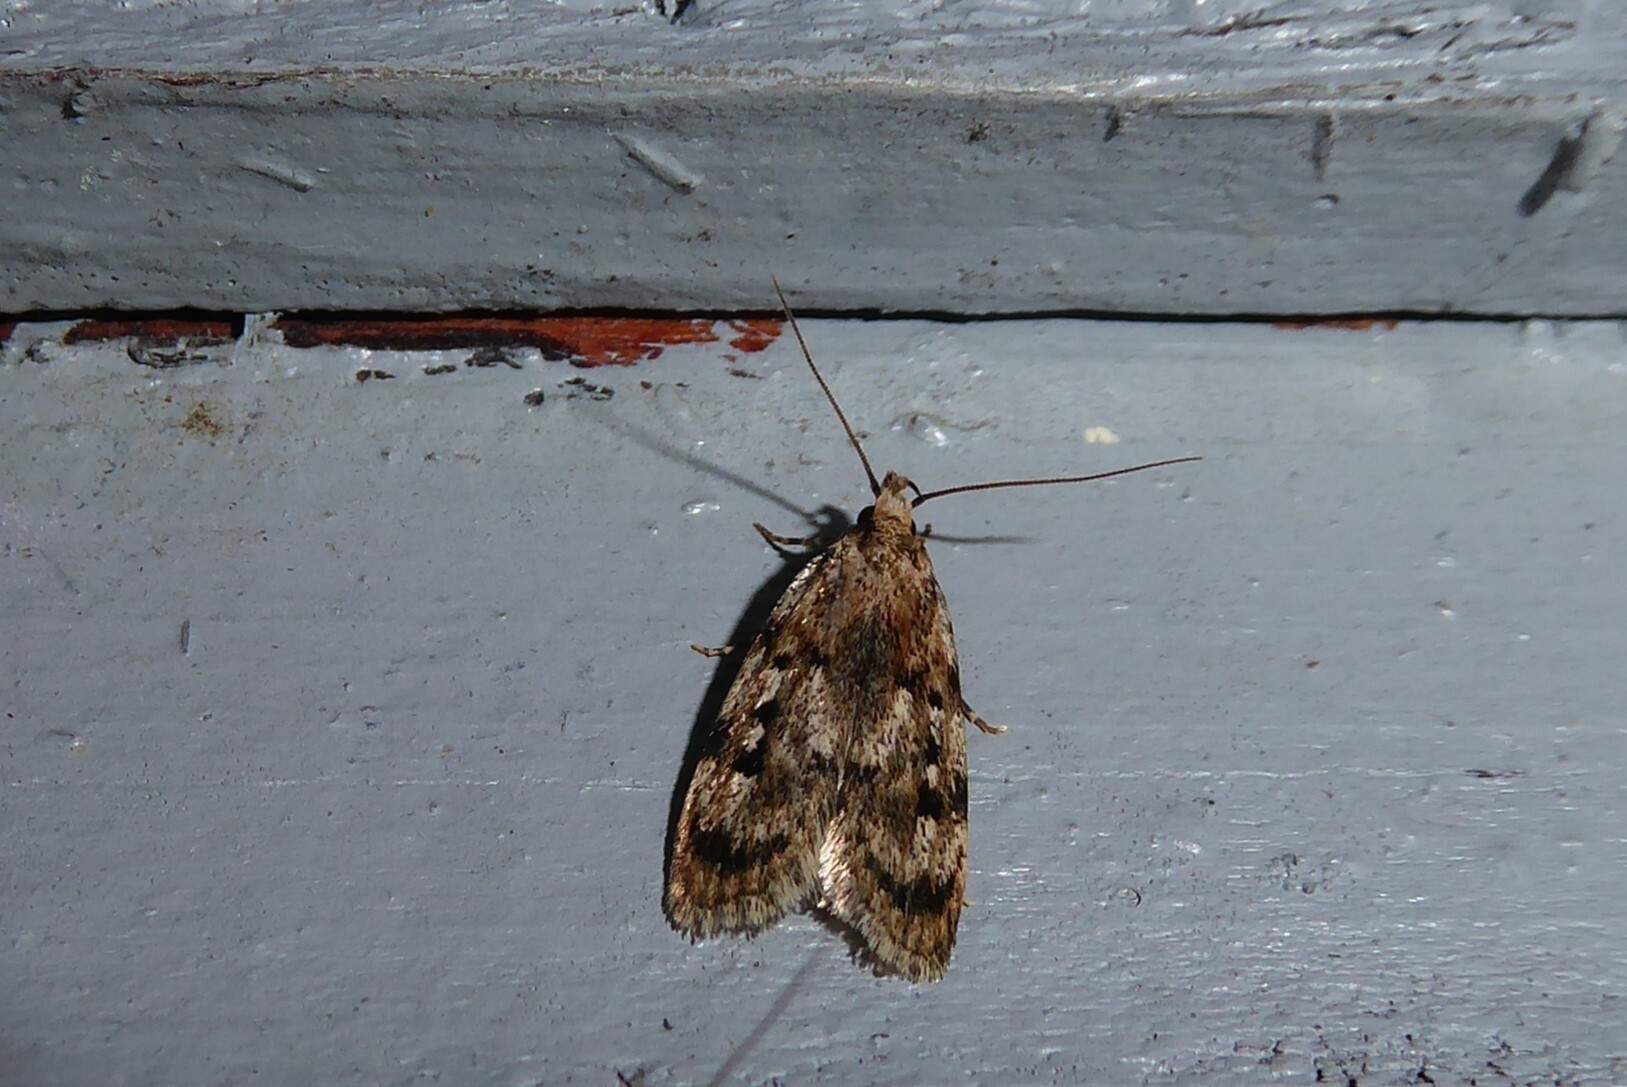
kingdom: Animalia
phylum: Arthropoda
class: Insecta
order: Lepidoptera
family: Oecophoridae
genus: Barea
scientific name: Barea exarcha
